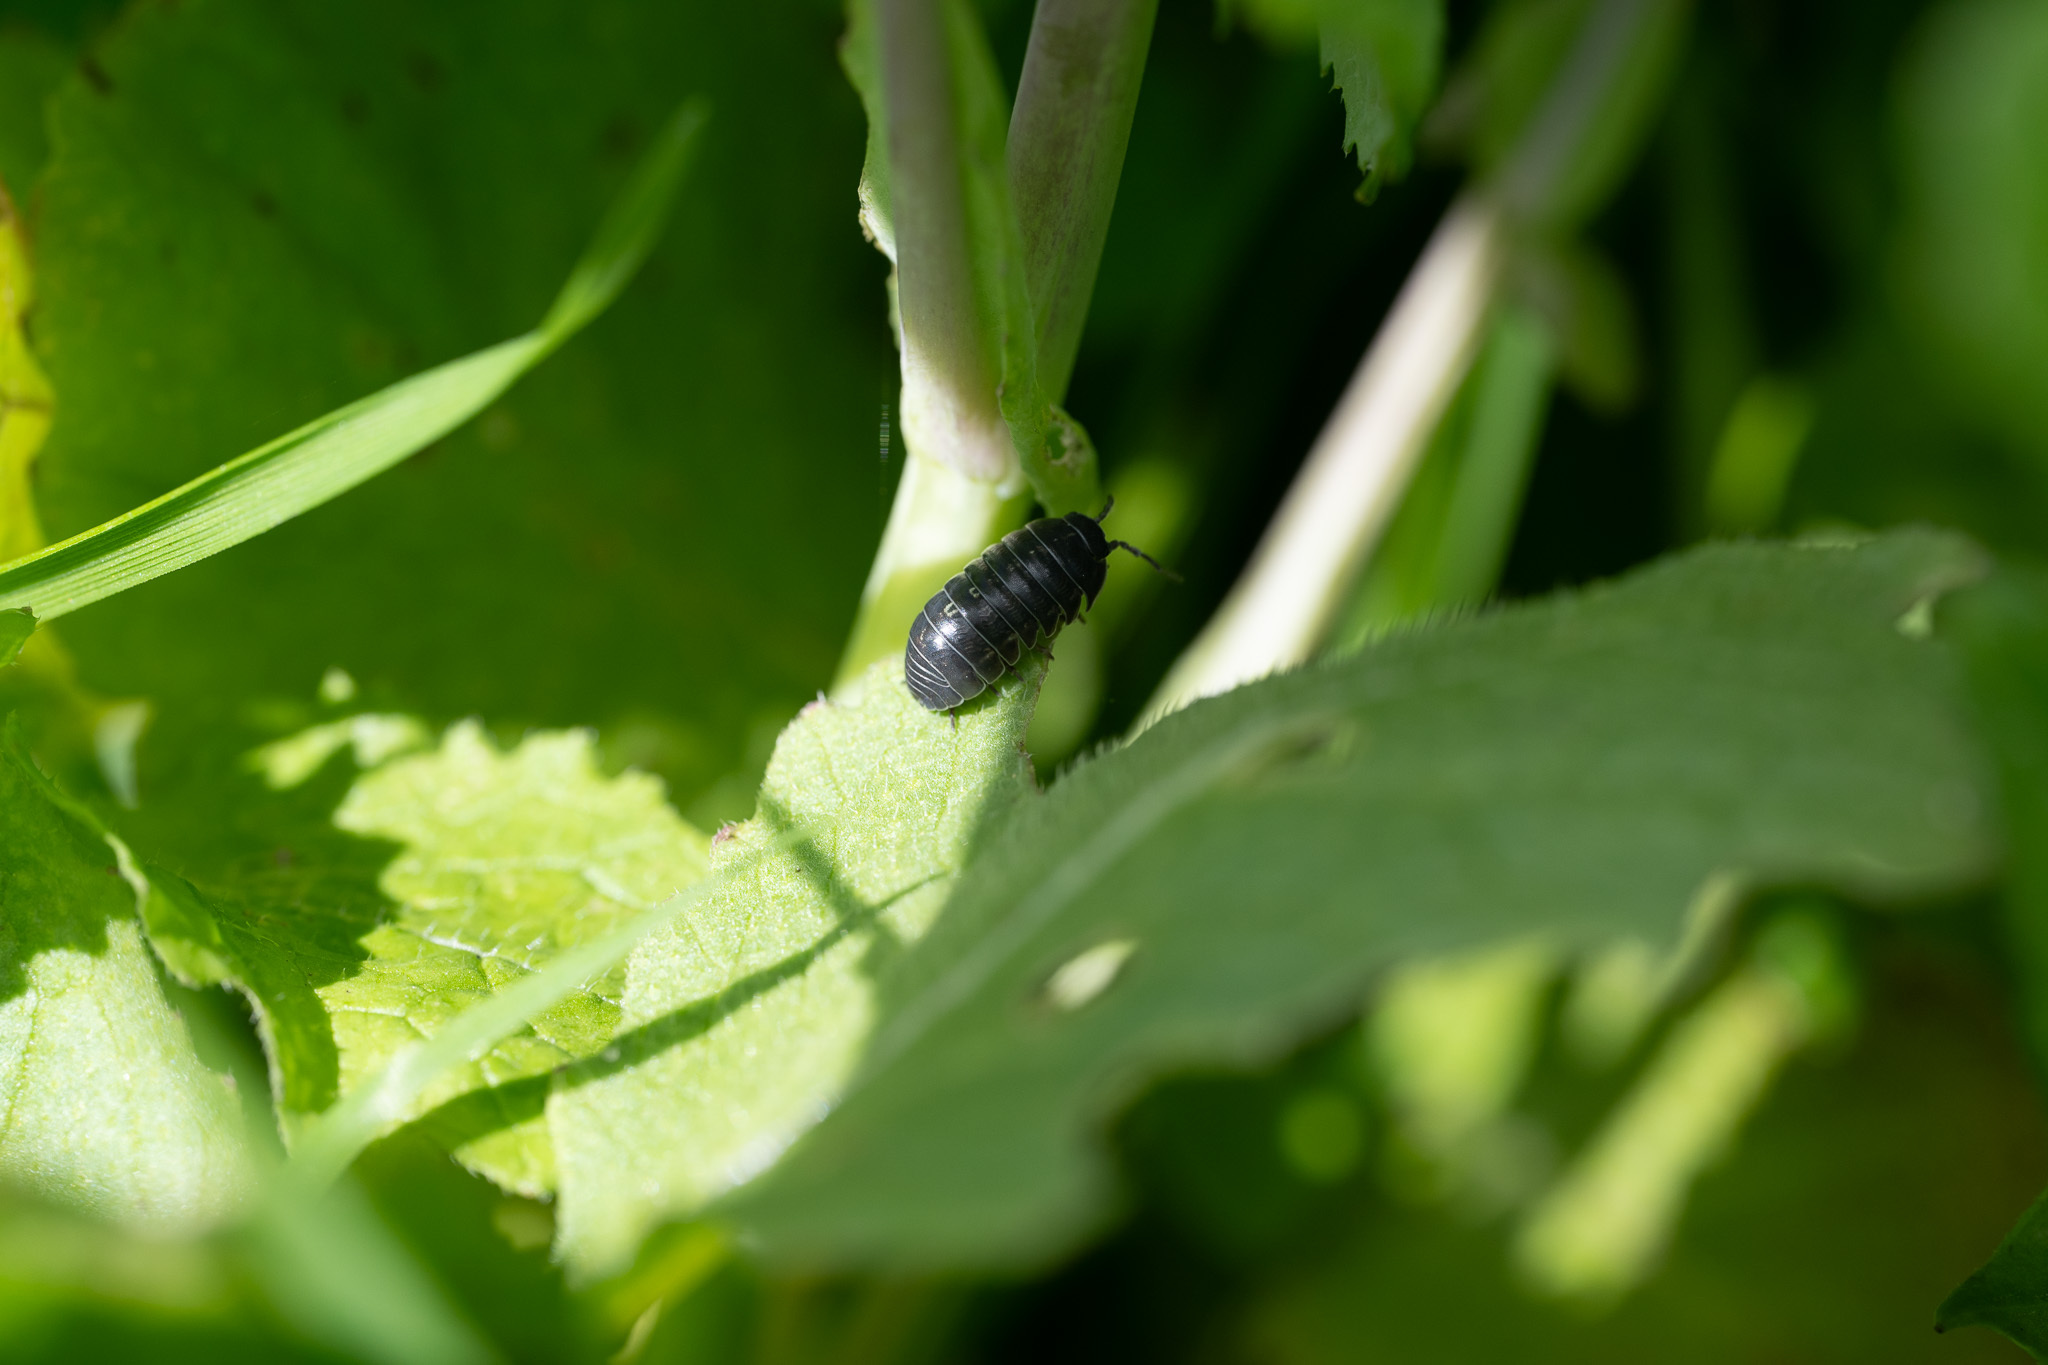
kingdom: Animalia
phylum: Arthropoda
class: Malacostraca
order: Isopoda
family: Armadillidiidae
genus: Armadillidium
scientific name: Armadillidium vulgare
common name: Common pill woodlouse
